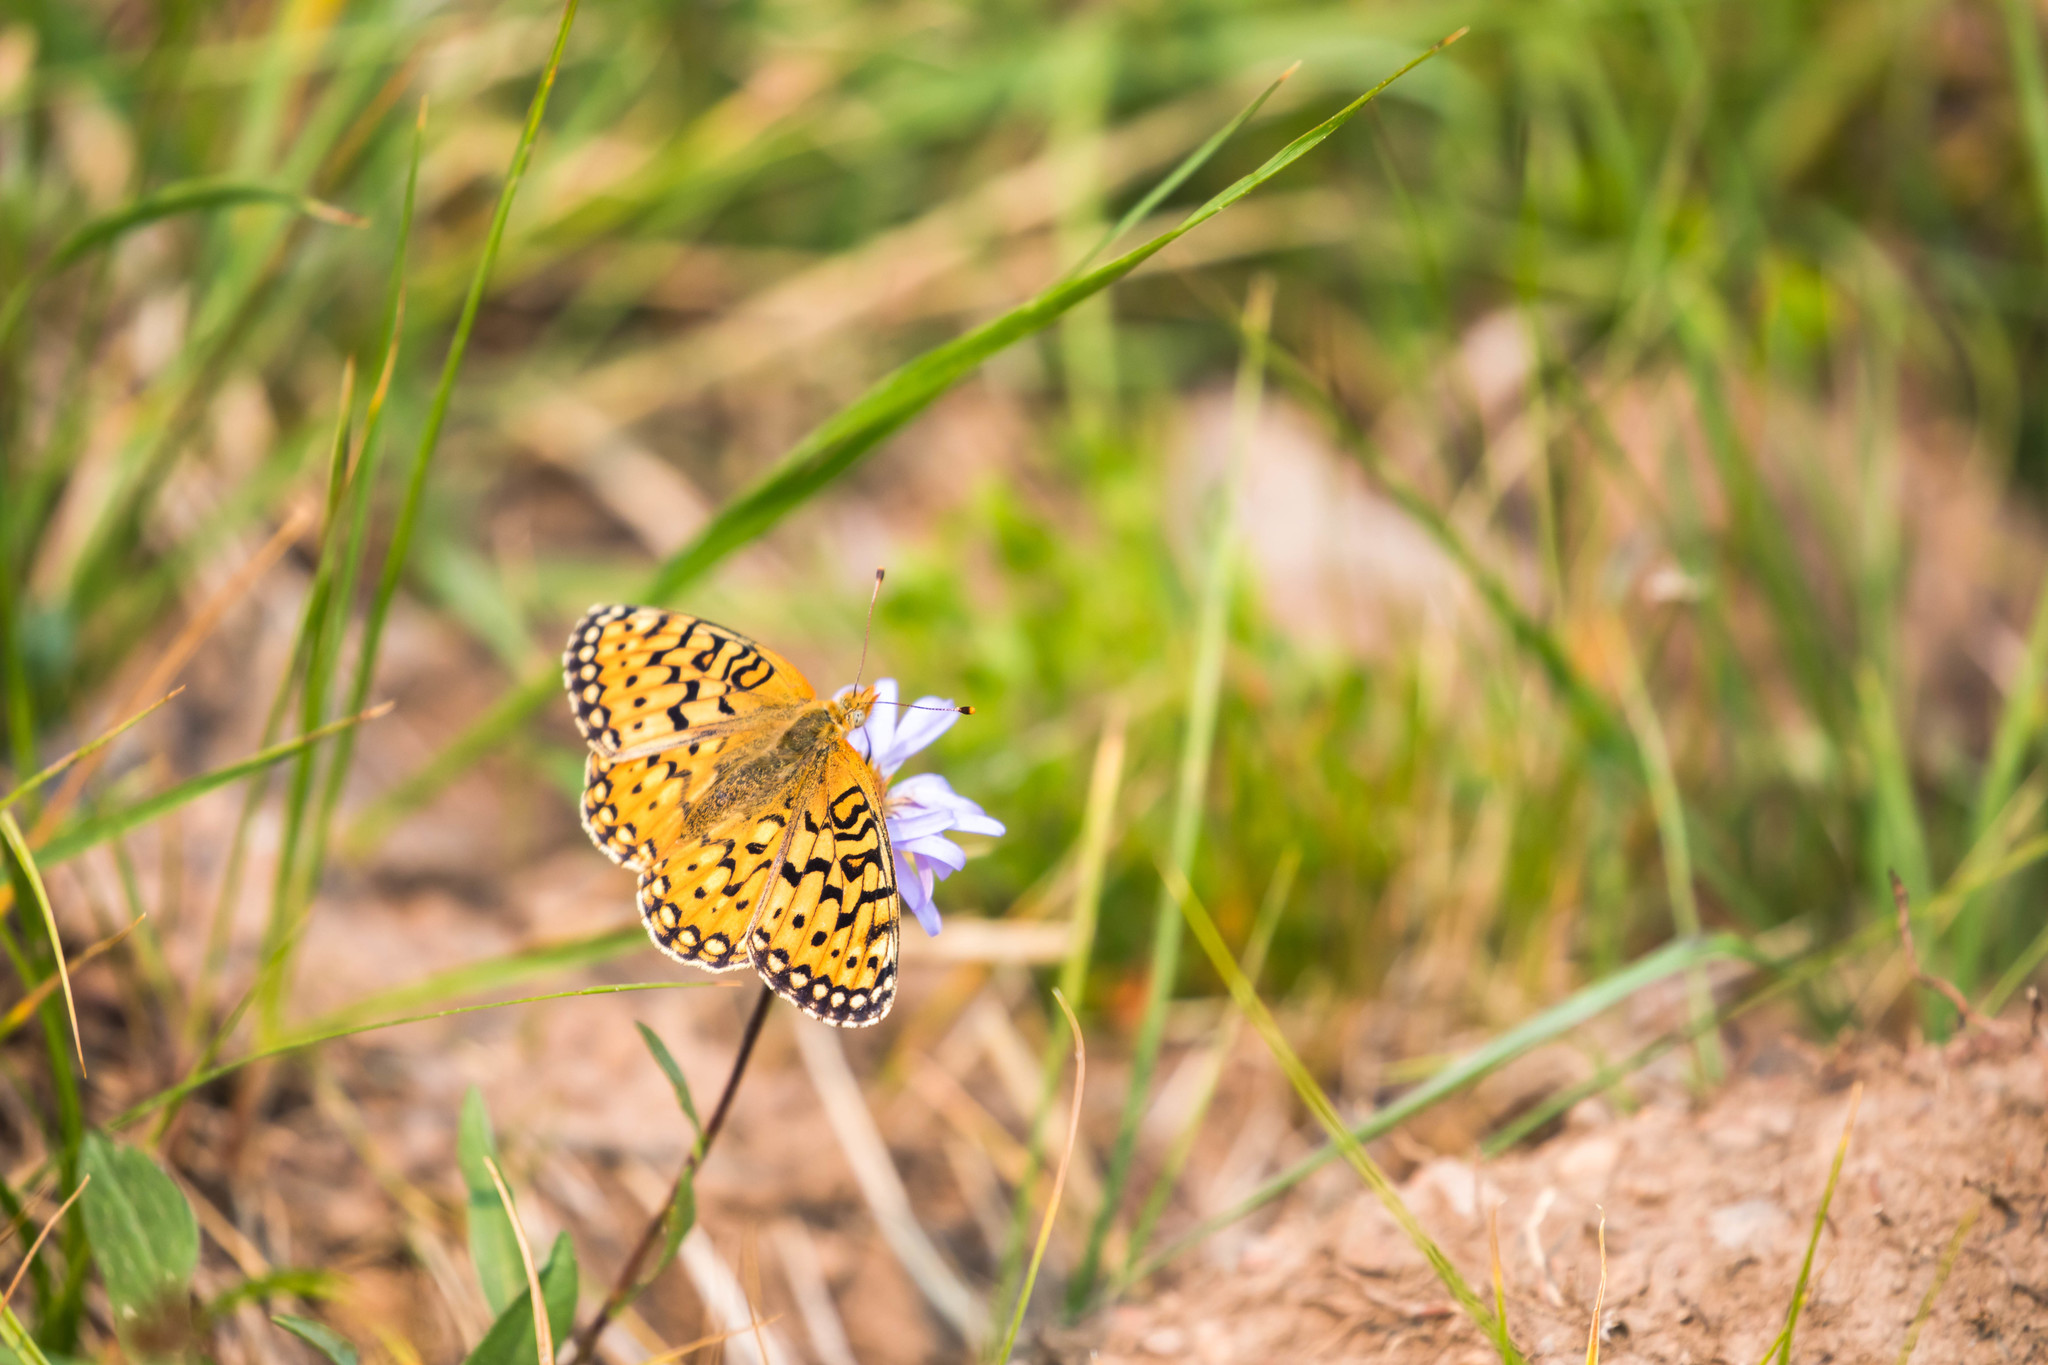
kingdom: Animalia
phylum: Arthropoda
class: Insecta
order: Lepidoptera
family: Nymphalidae
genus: Speyeria
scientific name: Speyeria mormonia
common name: Mormon fritillary
